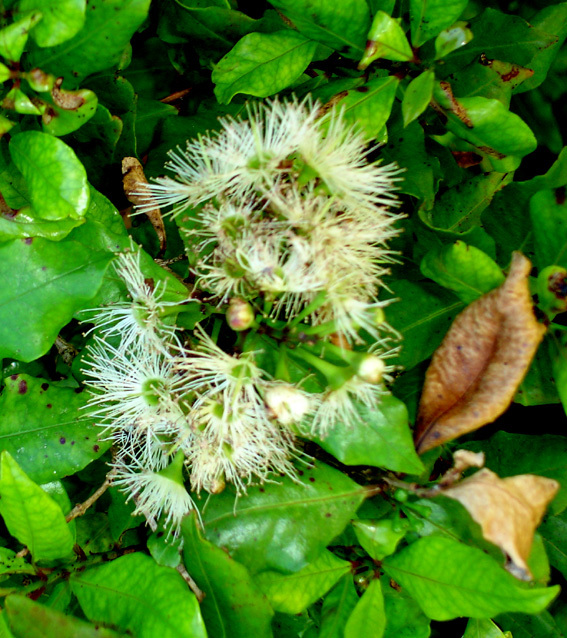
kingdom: Plantae
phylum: Tracheophyta
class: Magnoliopsida
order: Myrtales
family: Myrtaceae
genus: Syzygium
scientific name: Syzygium maire
